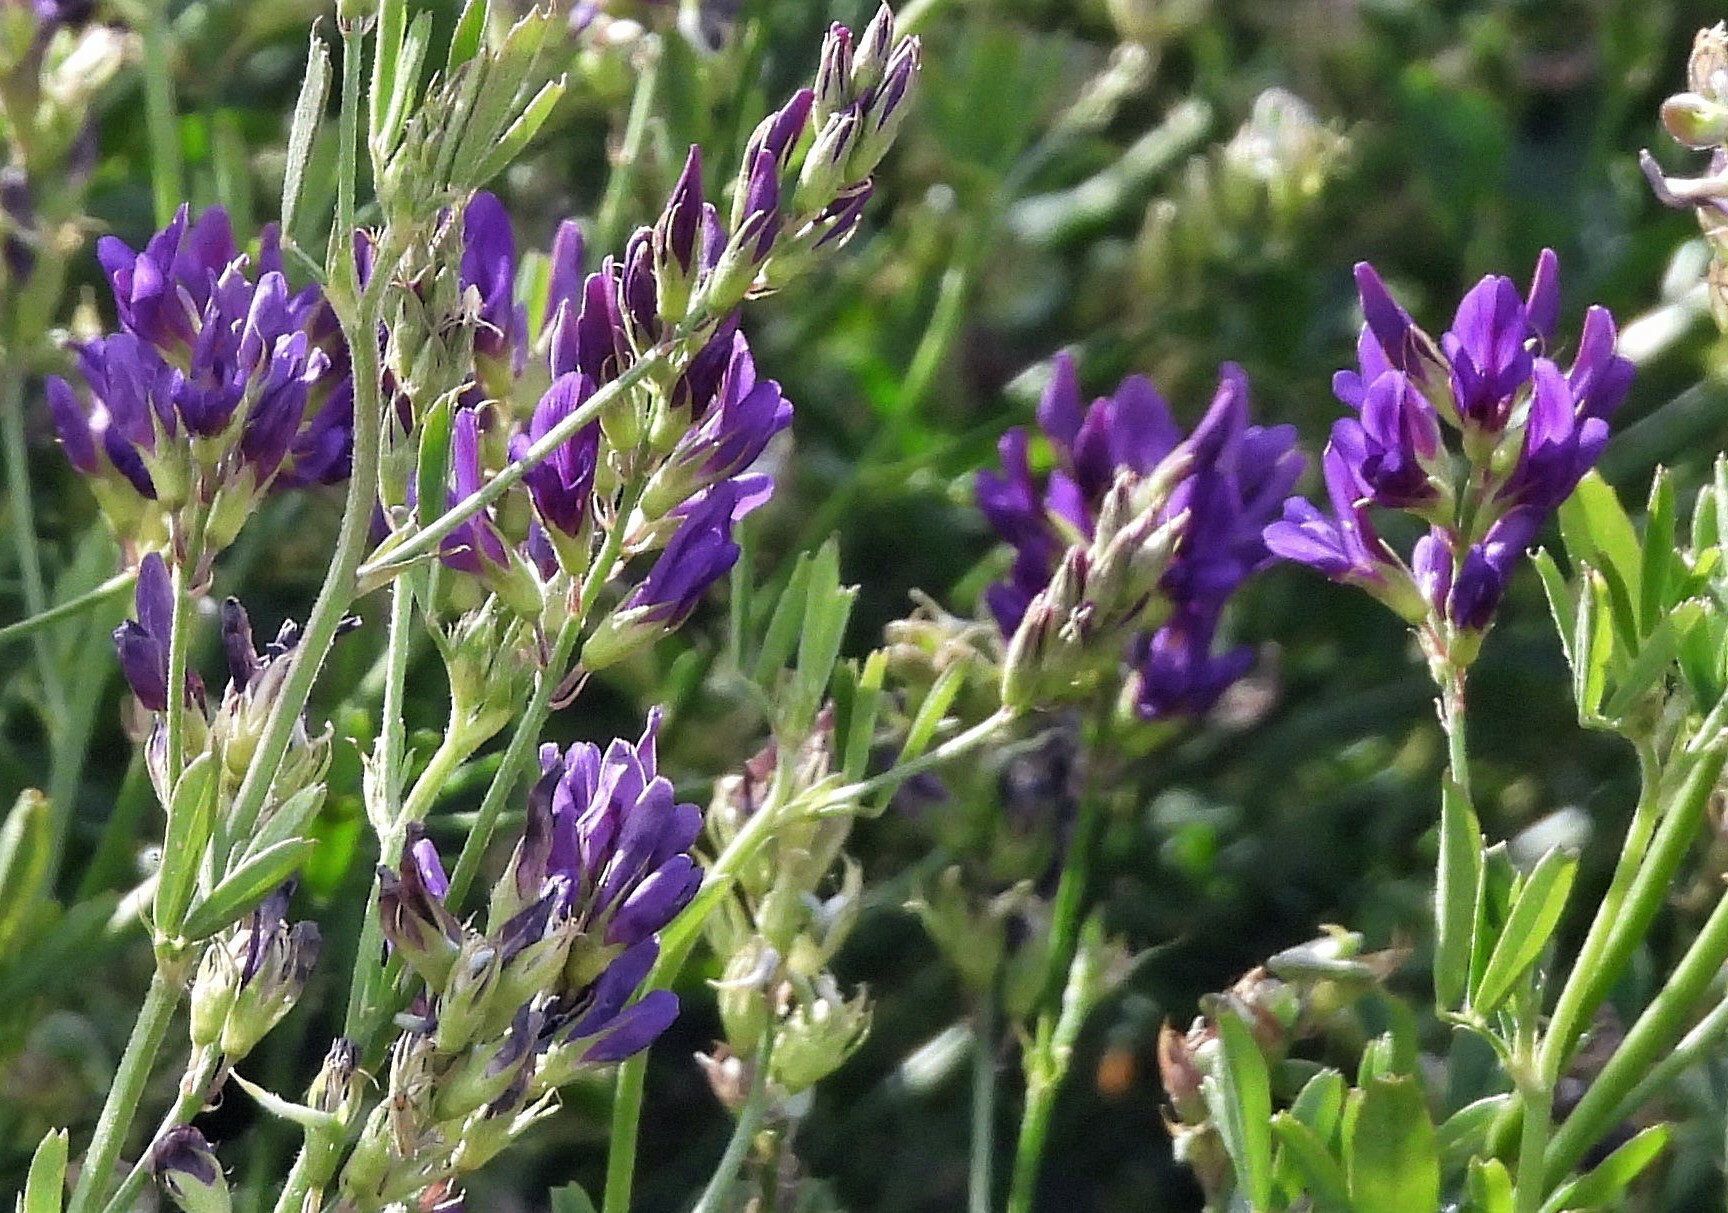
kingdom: Plantae
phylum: Tracheophyta
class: Magnoliopsida
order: Fabales
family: Fabaceae
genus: Medicago
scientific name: Medicago sativa
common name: Alfalfa
